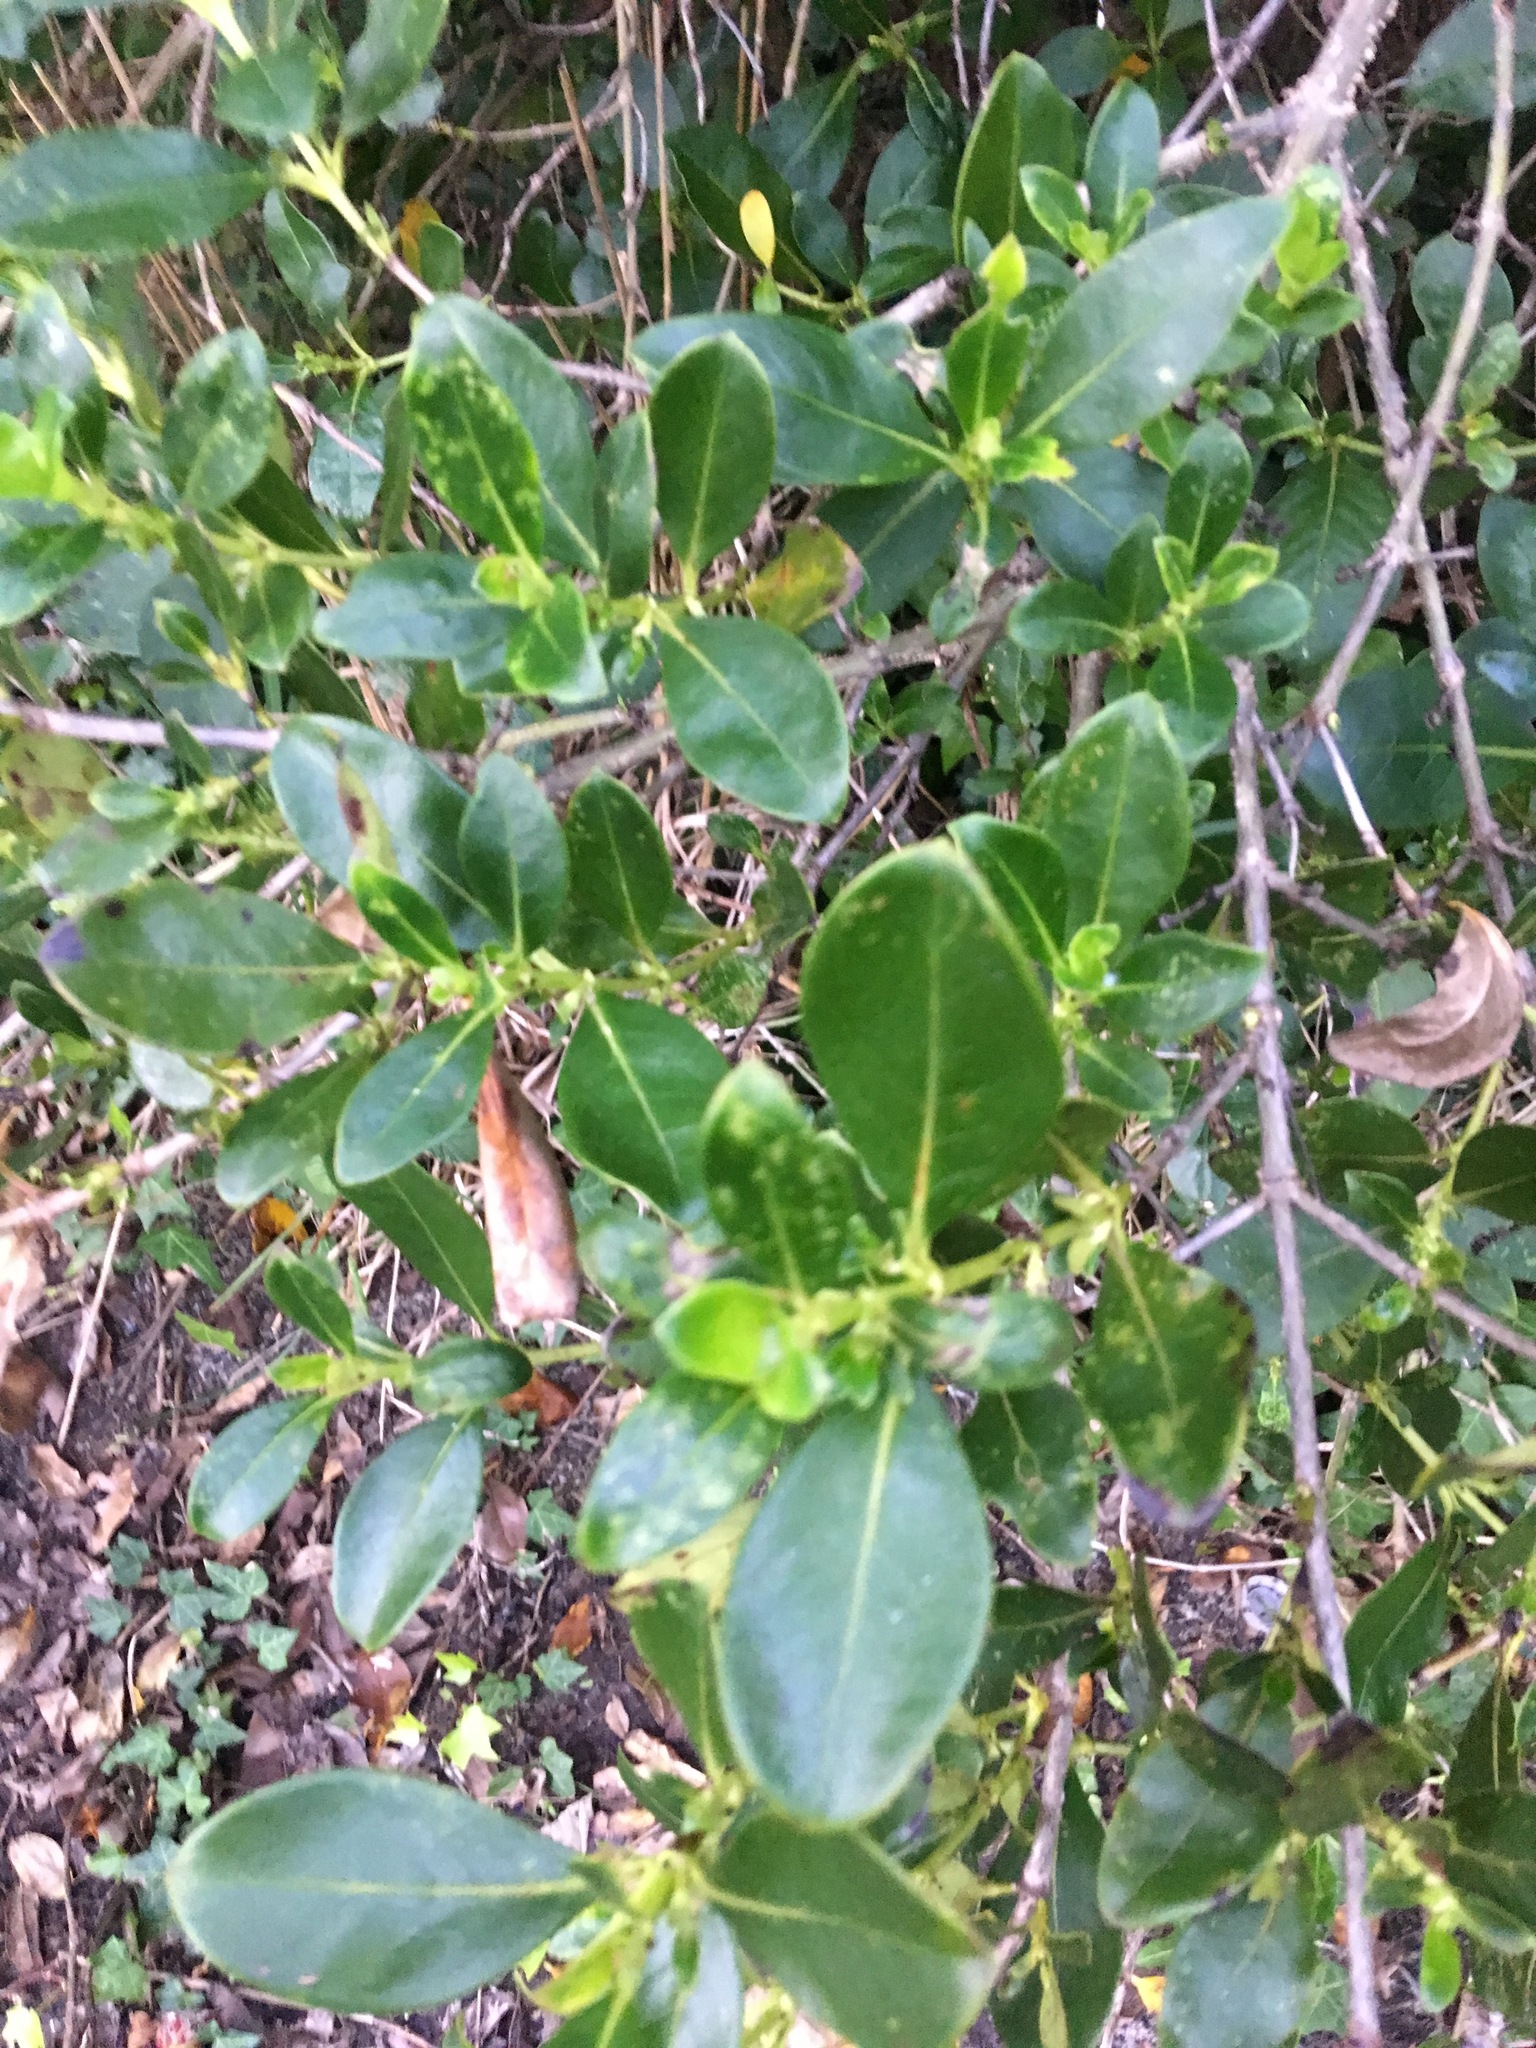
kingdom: Plantae
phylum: Tracheophyta
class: Magnoliopsida
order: Gentianales
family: Rubiaceae
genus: Coprosma
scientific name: Coprosma robusta
